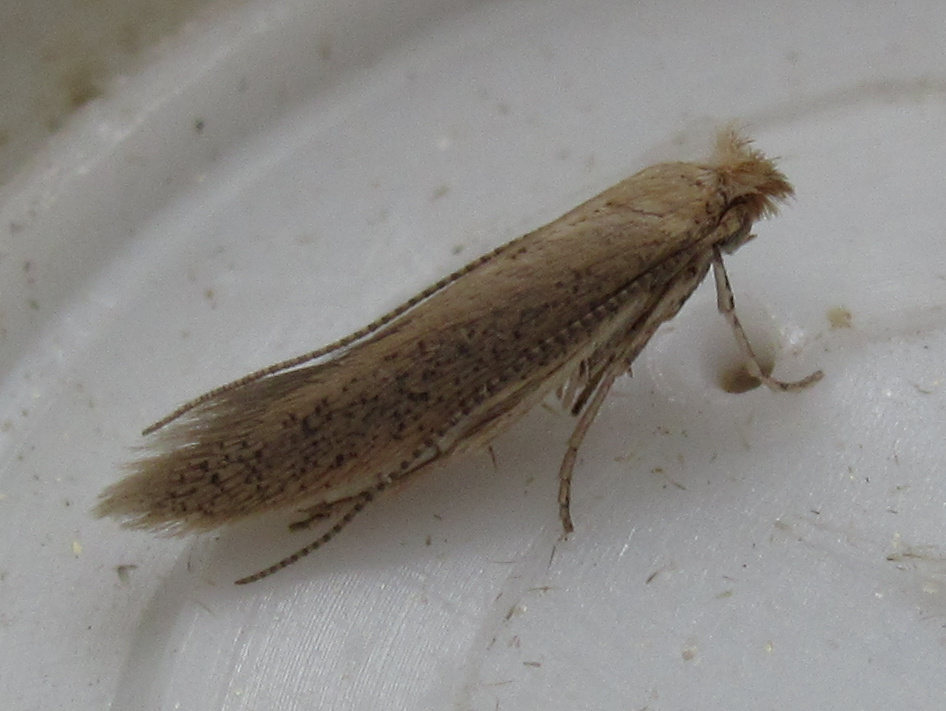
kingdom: Animalia
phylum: Arthropoda
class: Insecta
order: Lepidoptera
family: Bedelliidae
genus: Bedellia
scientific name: Bedellia somnulentella
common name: Morning-glory leafminer moth
